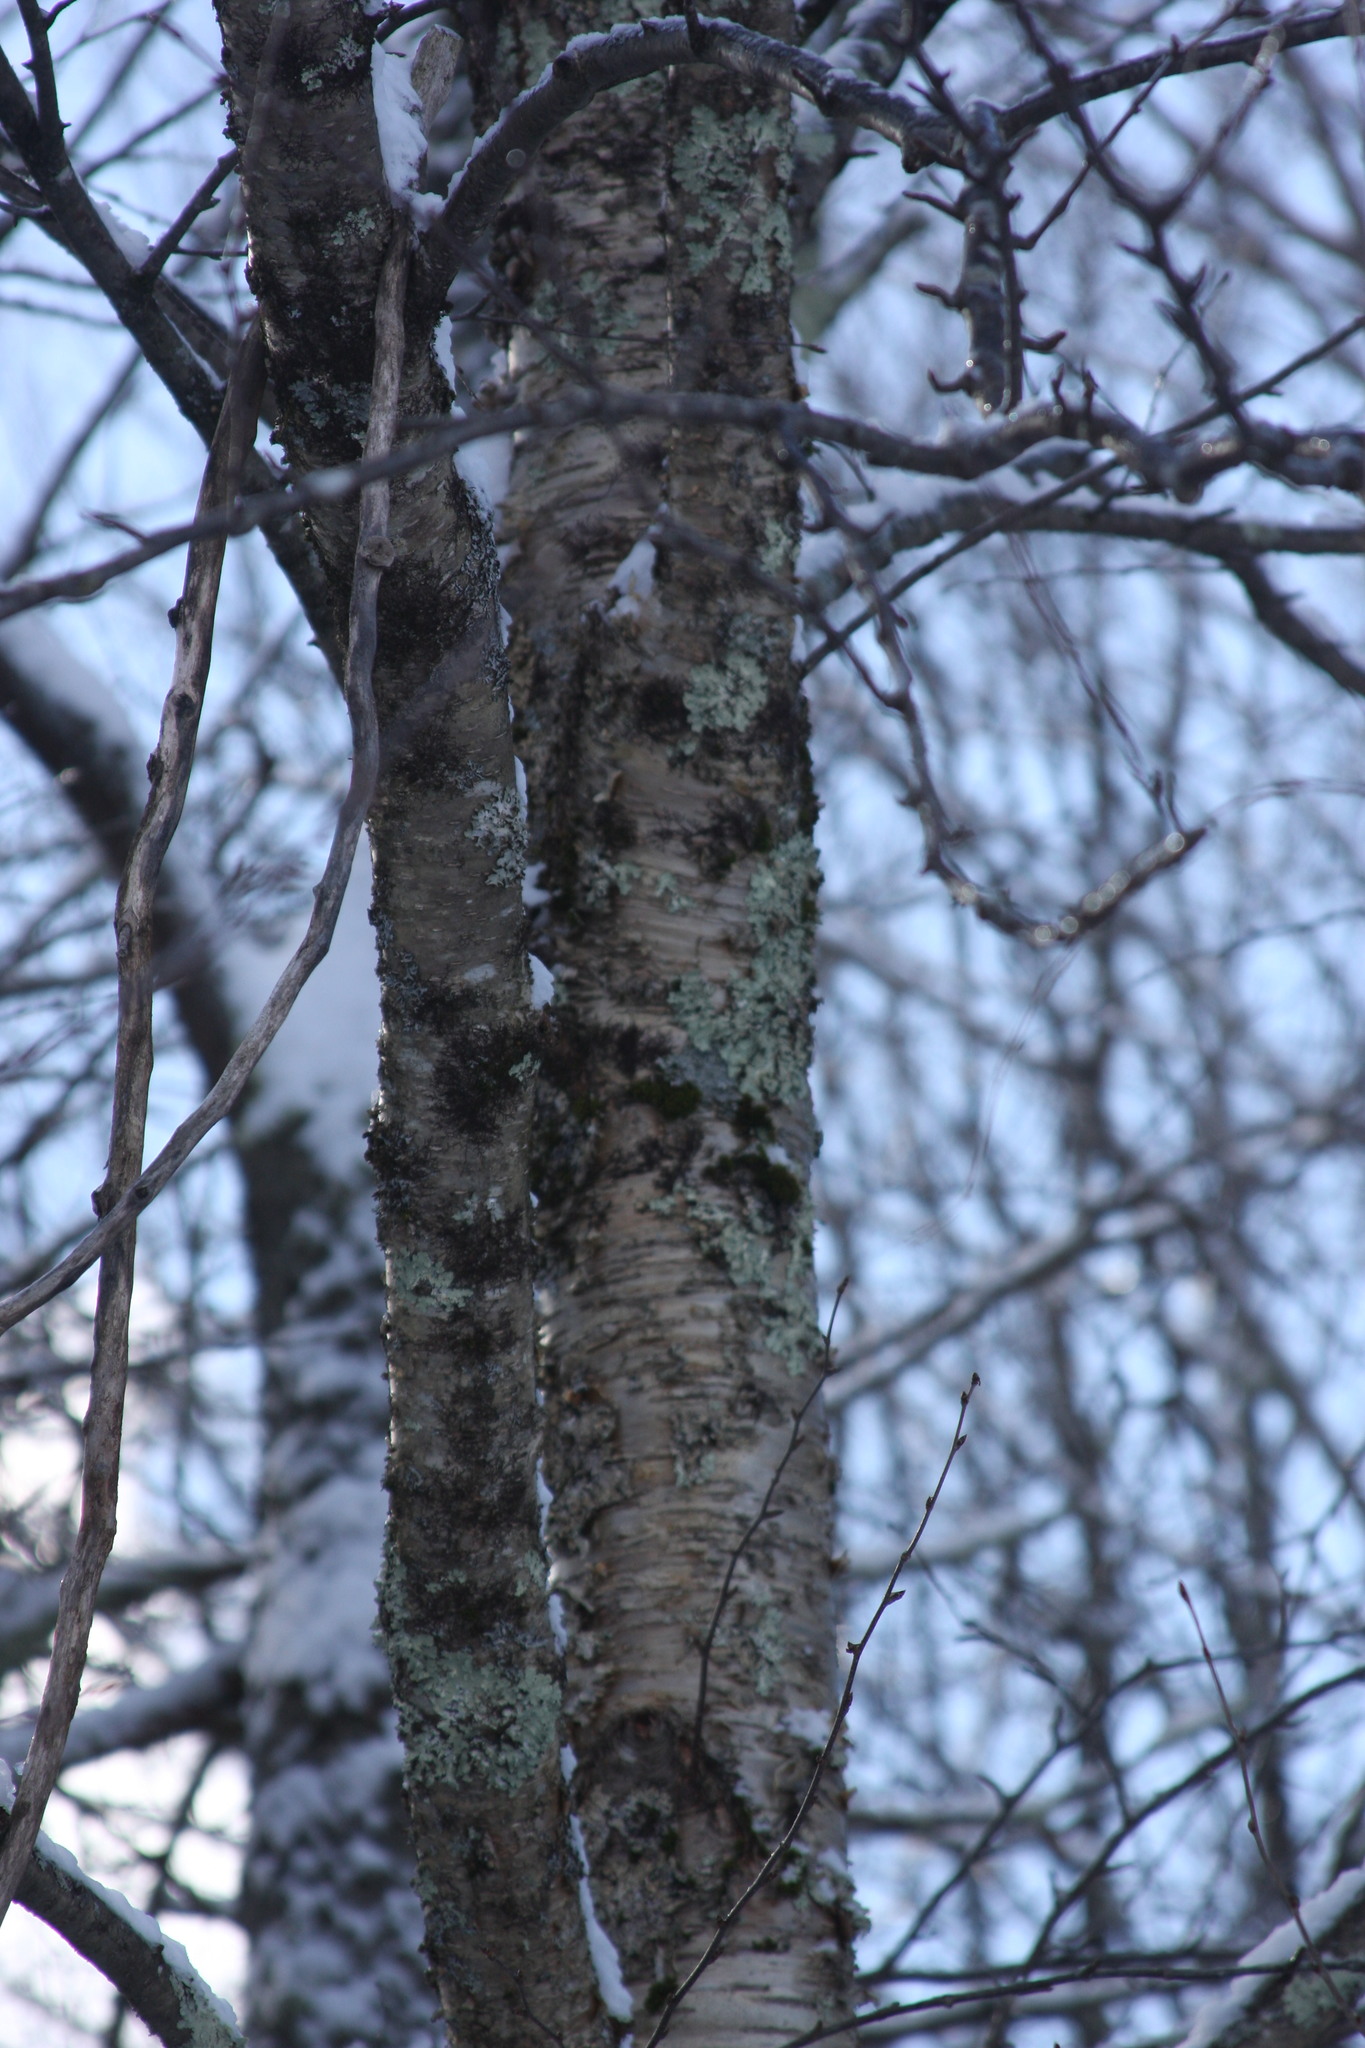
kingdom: Plantae
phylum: Tracheophyta
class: Magnoliopsida
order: Fagales
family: Betulaceae
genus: Betula
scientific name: Betula alleghaniensis
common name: Yellow birch
